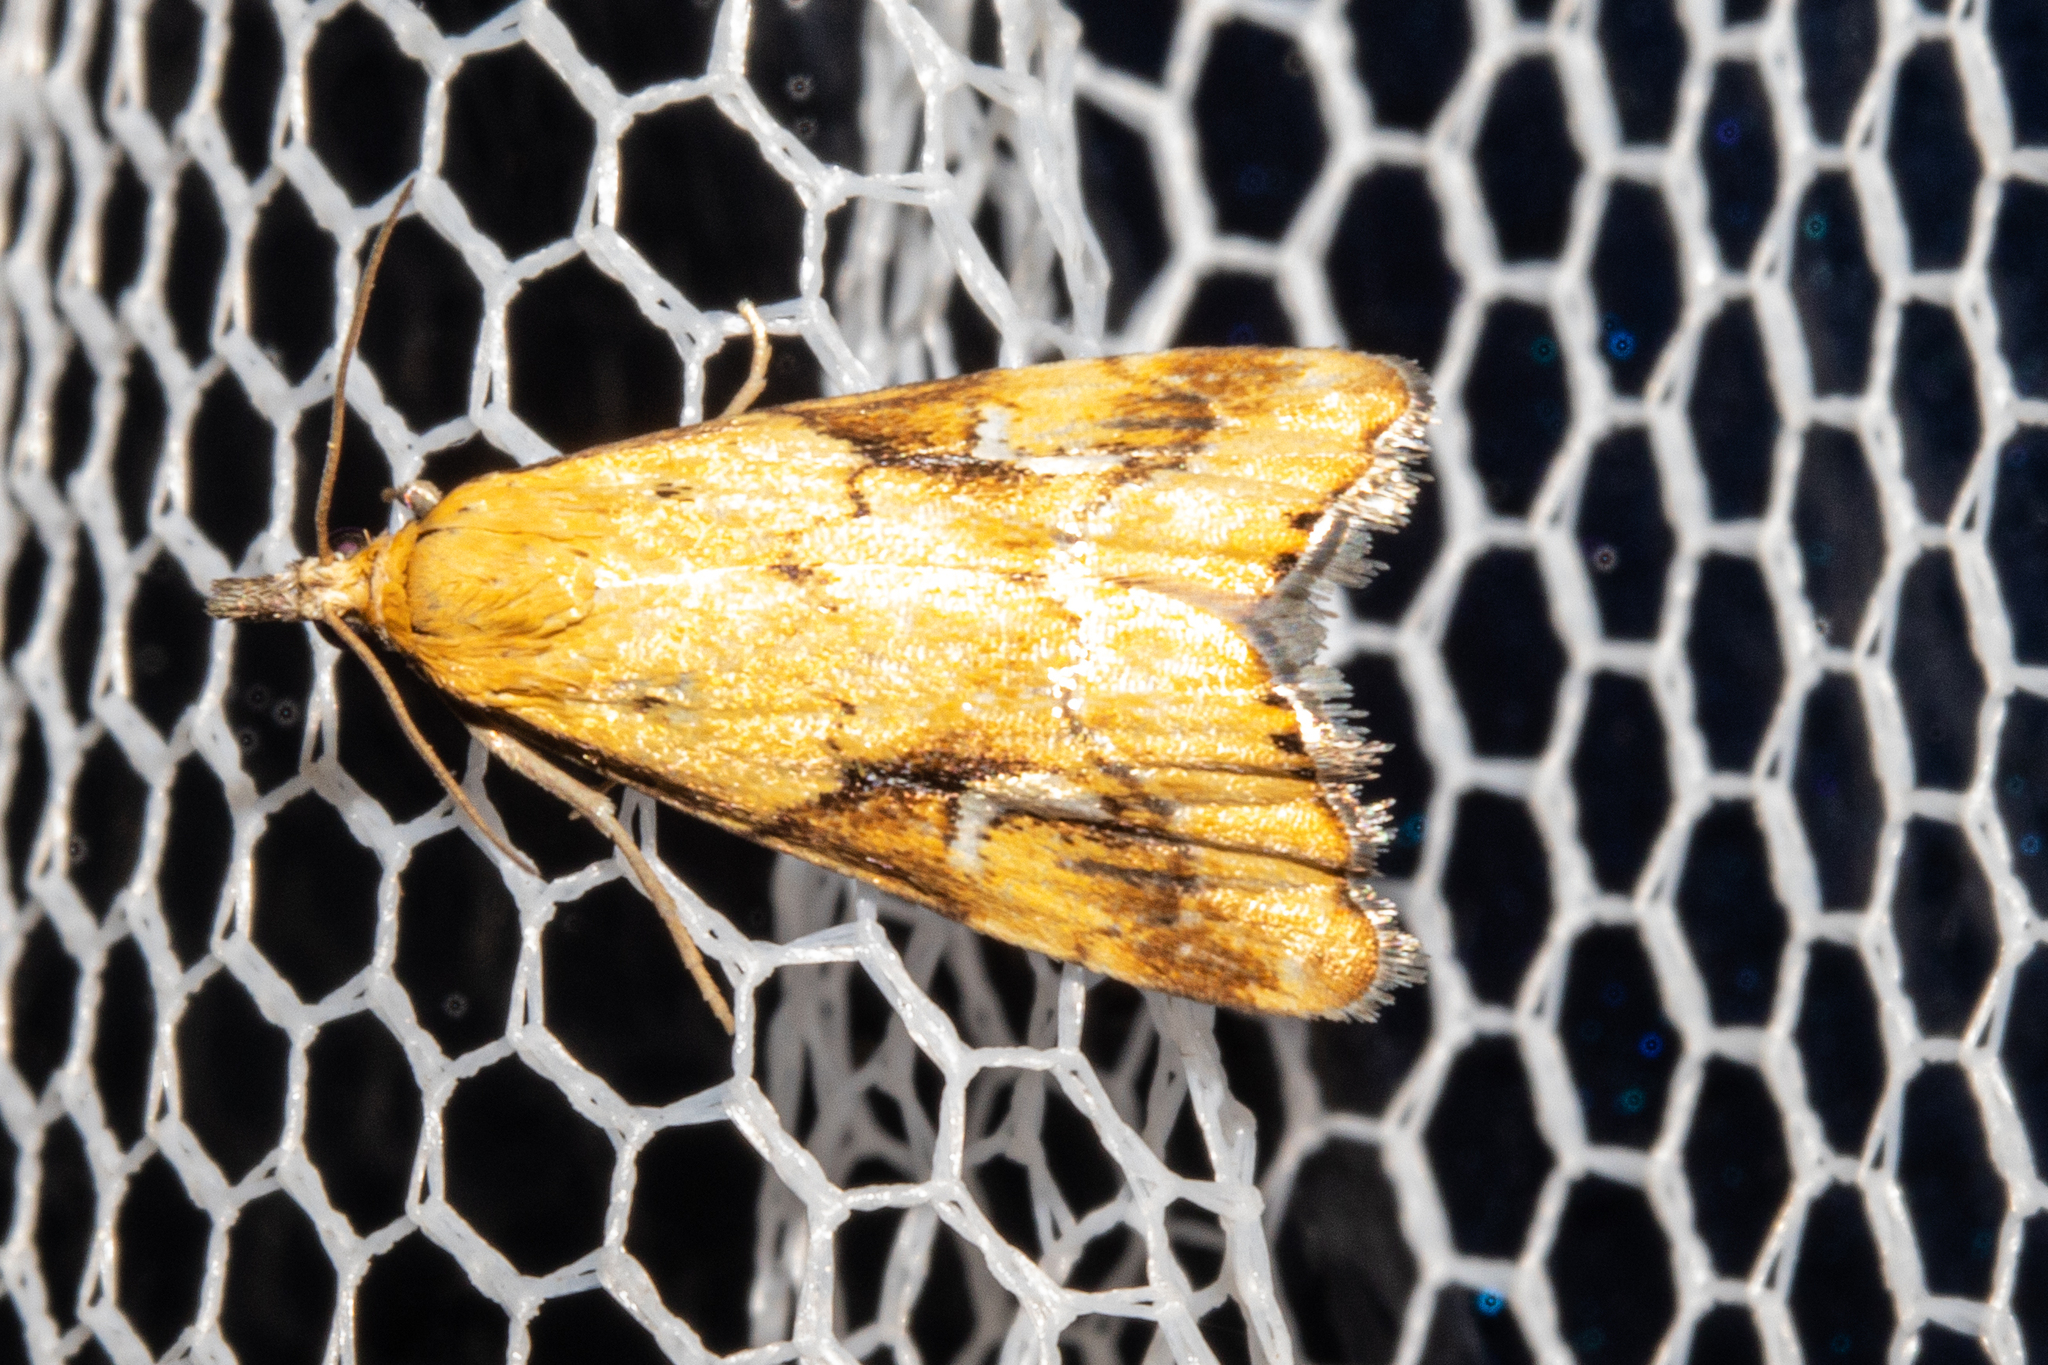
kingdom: Animalia
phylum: Arthropoda
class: Insecta
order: Lepidoptera
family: Crambidae
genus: Glaucocharis
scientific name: Glaucocharis lepidella
